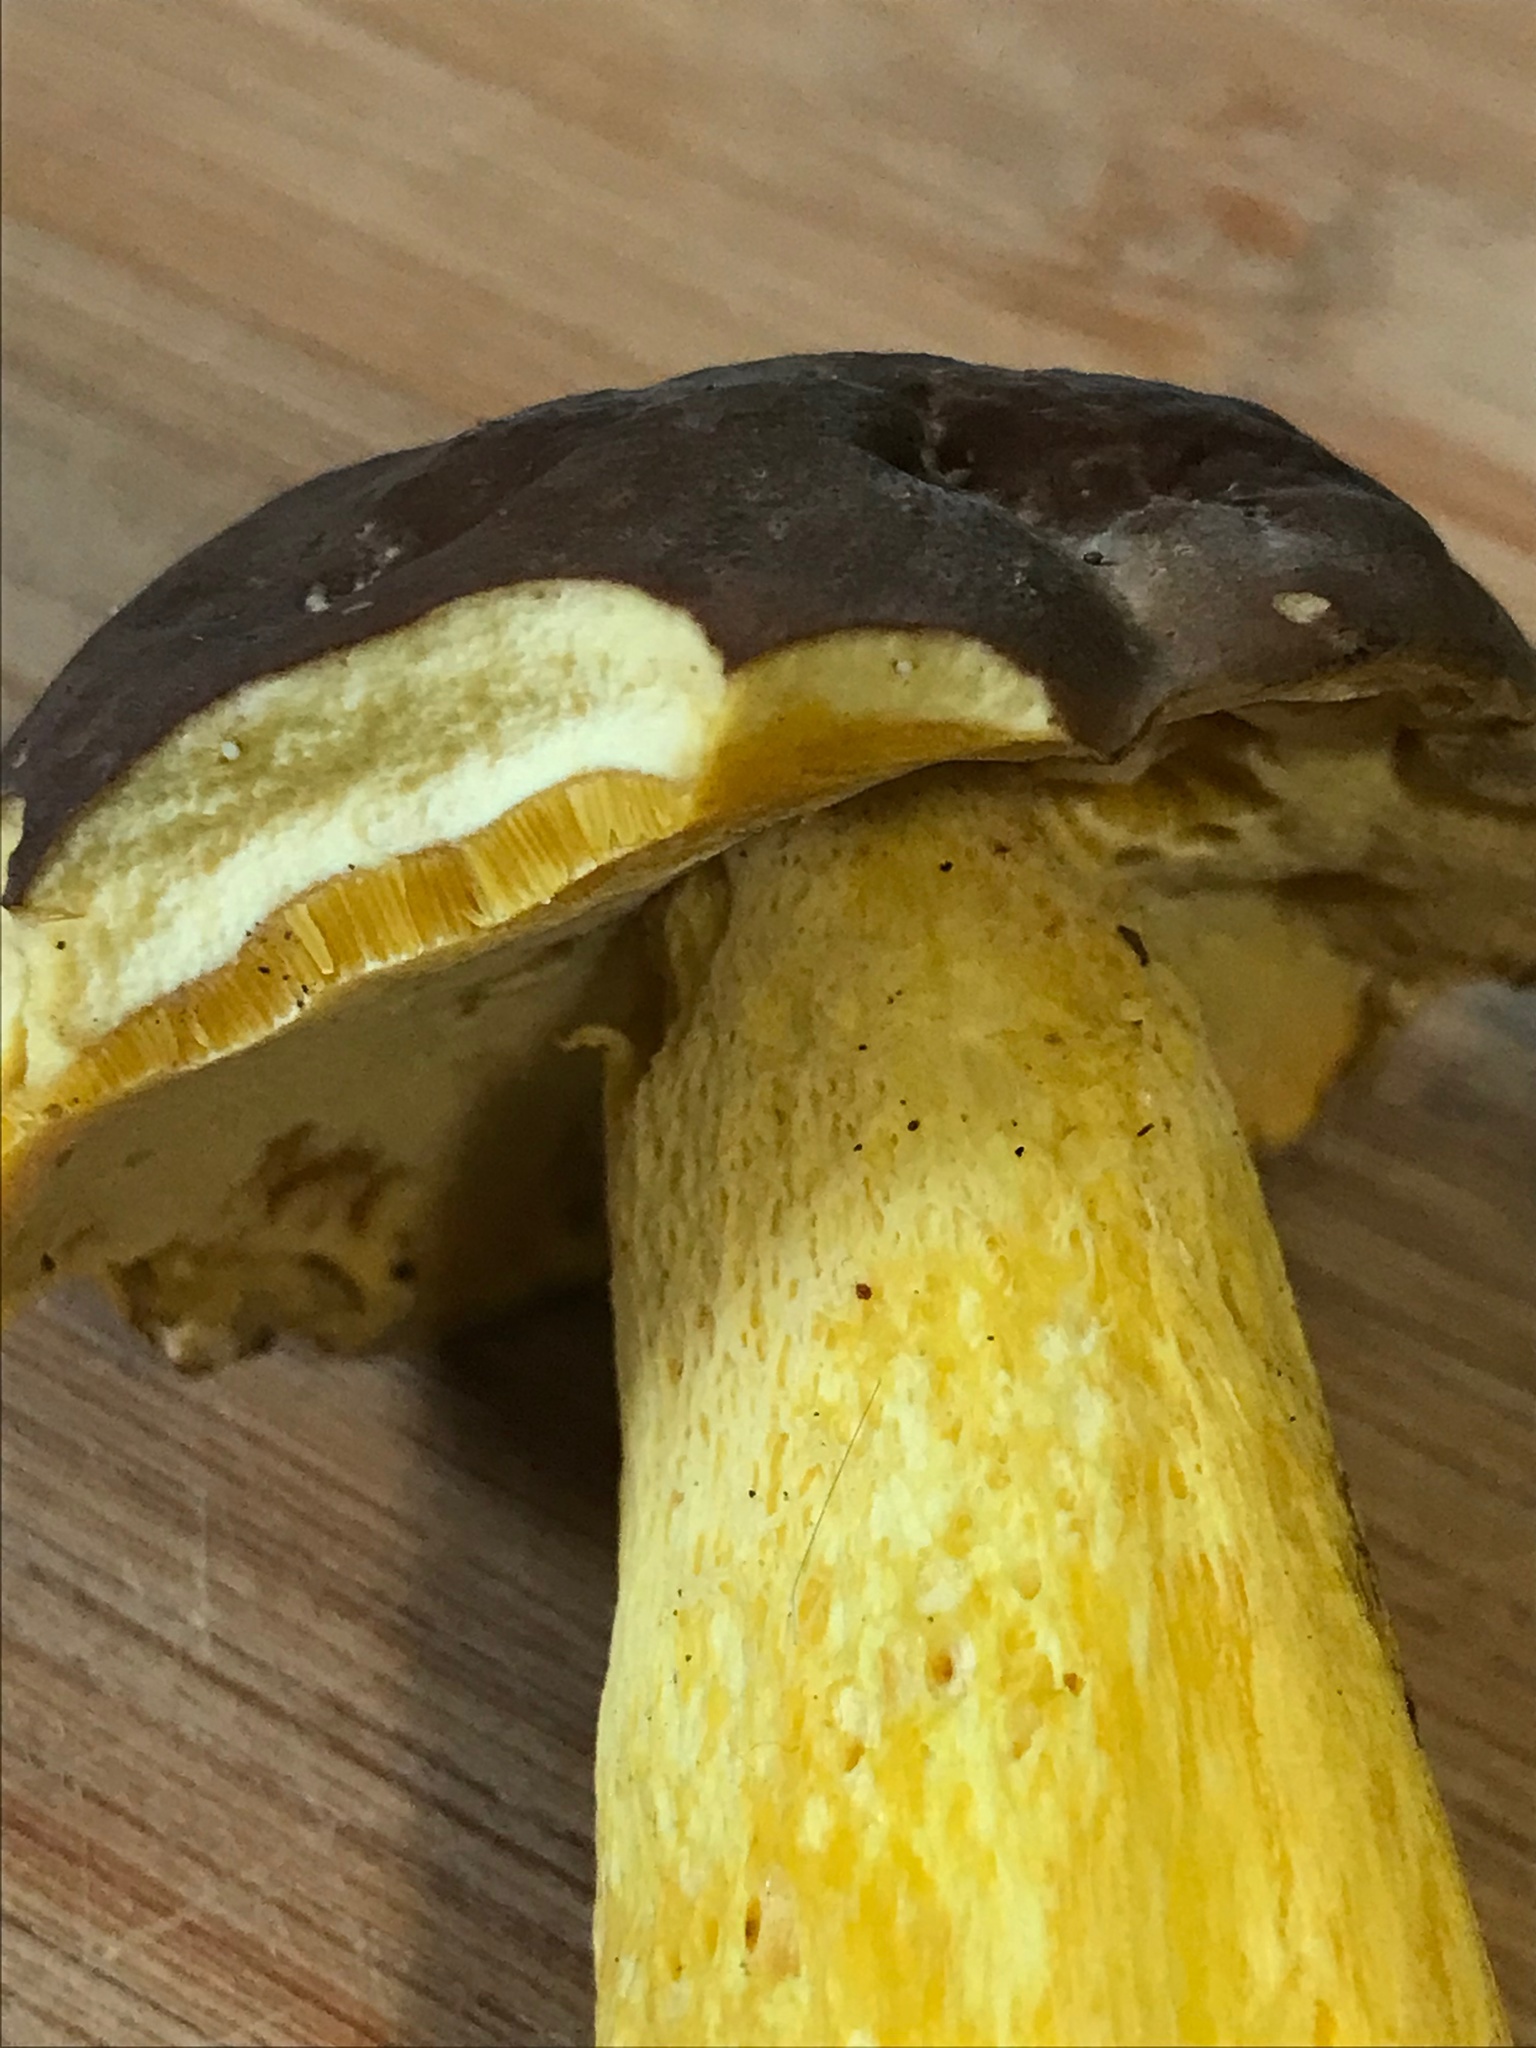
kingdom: Fungi
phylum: Basidiomycota
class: Agaricomycetes
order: Boletales
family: Boletaceae
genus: Boletus
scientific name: Boletus auripes
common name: Butter-foot bolete
